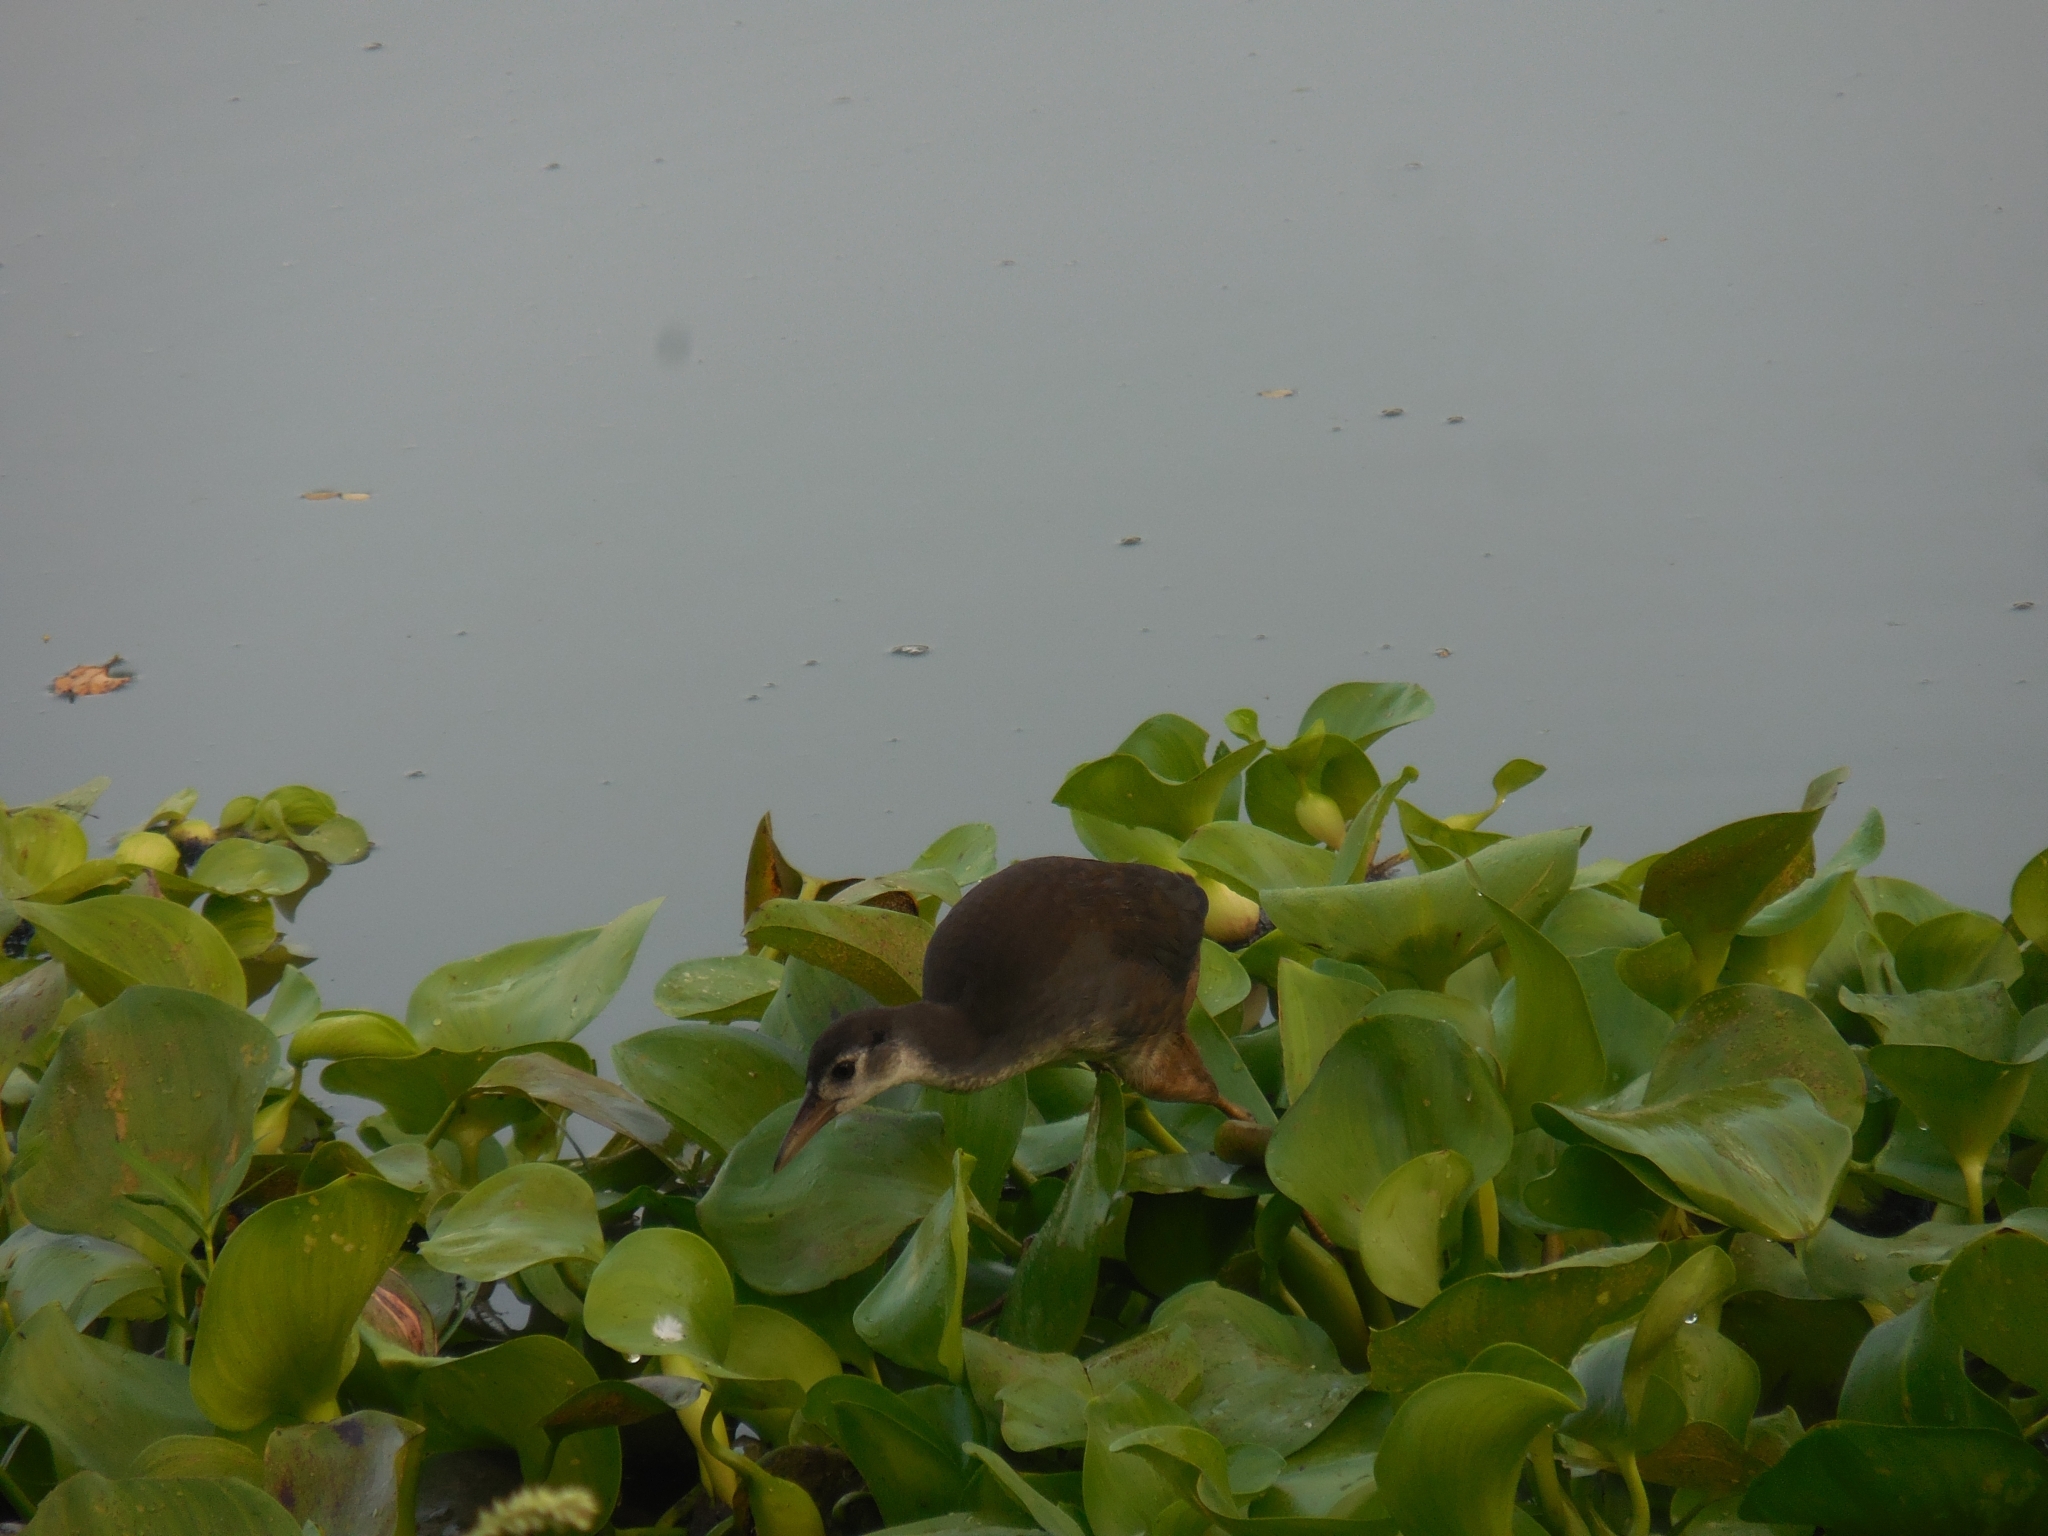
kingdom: Animalia
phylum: Chordata
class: Aves
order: Gruiformes
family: Rallidae
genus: Amaurornis
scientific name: Amaurornis phoenicurus
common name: White-breasted waterhen
